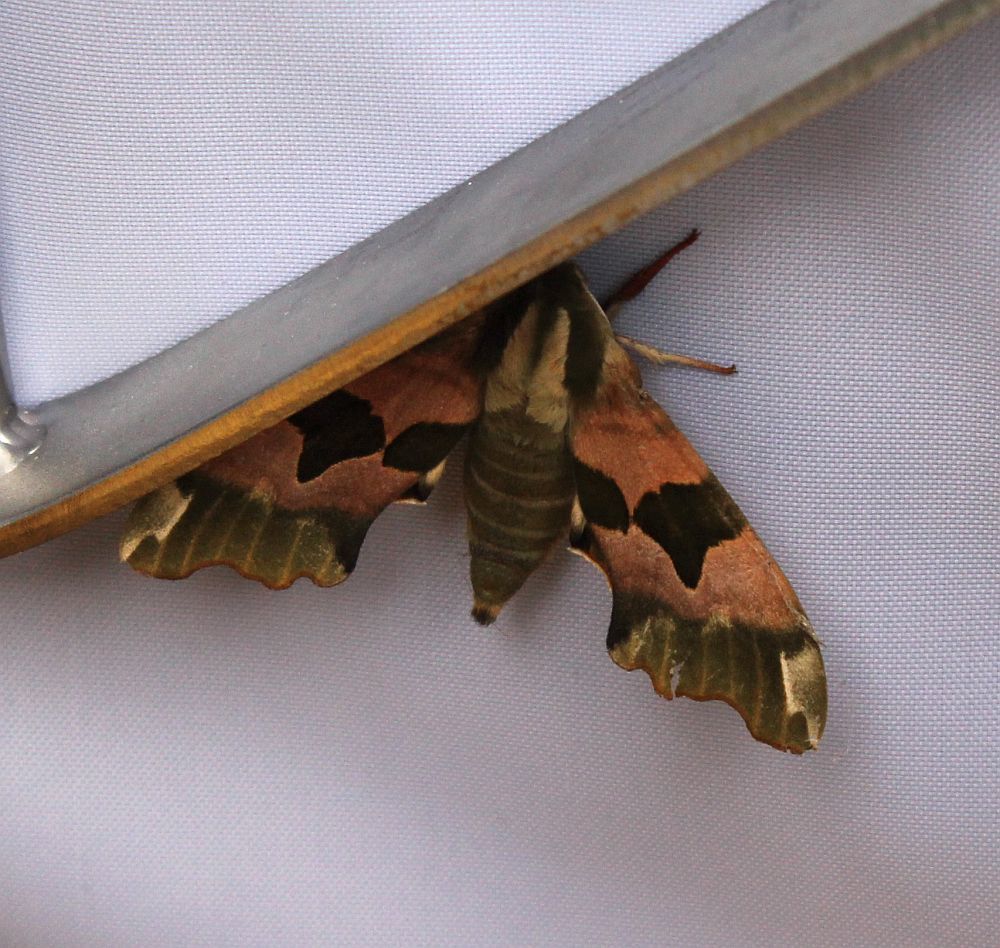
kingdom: Animalia
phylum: Arthropoda
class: Insecta
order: Lepidoptera
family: Sphingidae
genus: Mimas
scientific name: Mimas tiliae
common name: Lime hawk-moth
